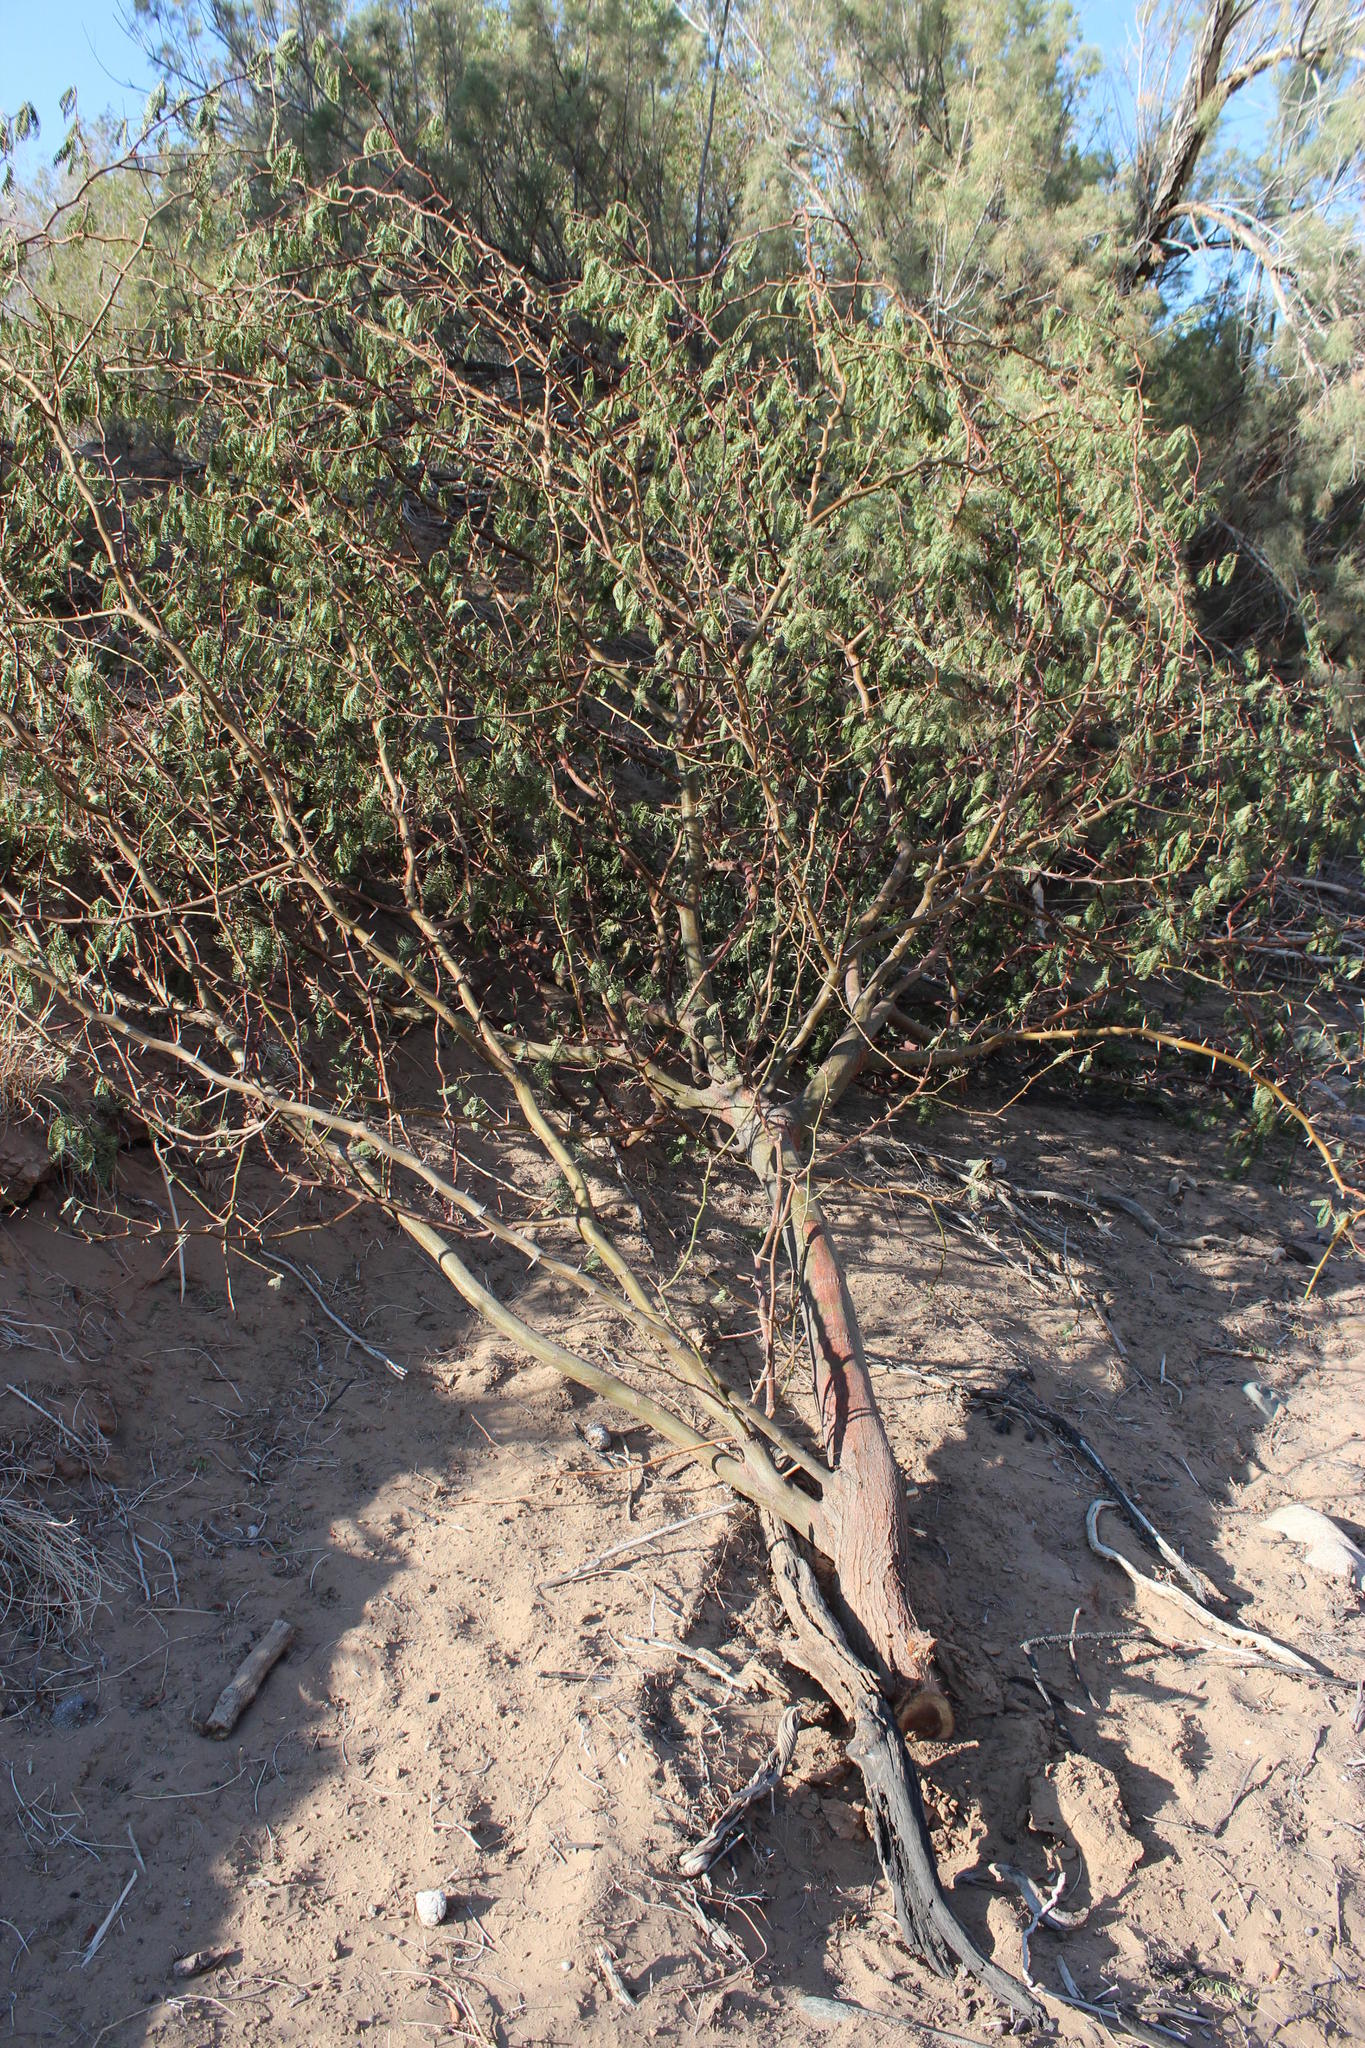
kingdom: Plantae
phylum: Tracheophyta
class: Magnoliopsida
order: Fabales
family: Fabaceae
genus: Prosopis
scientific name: Prosopis glandulosa
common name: Honey mesquite
